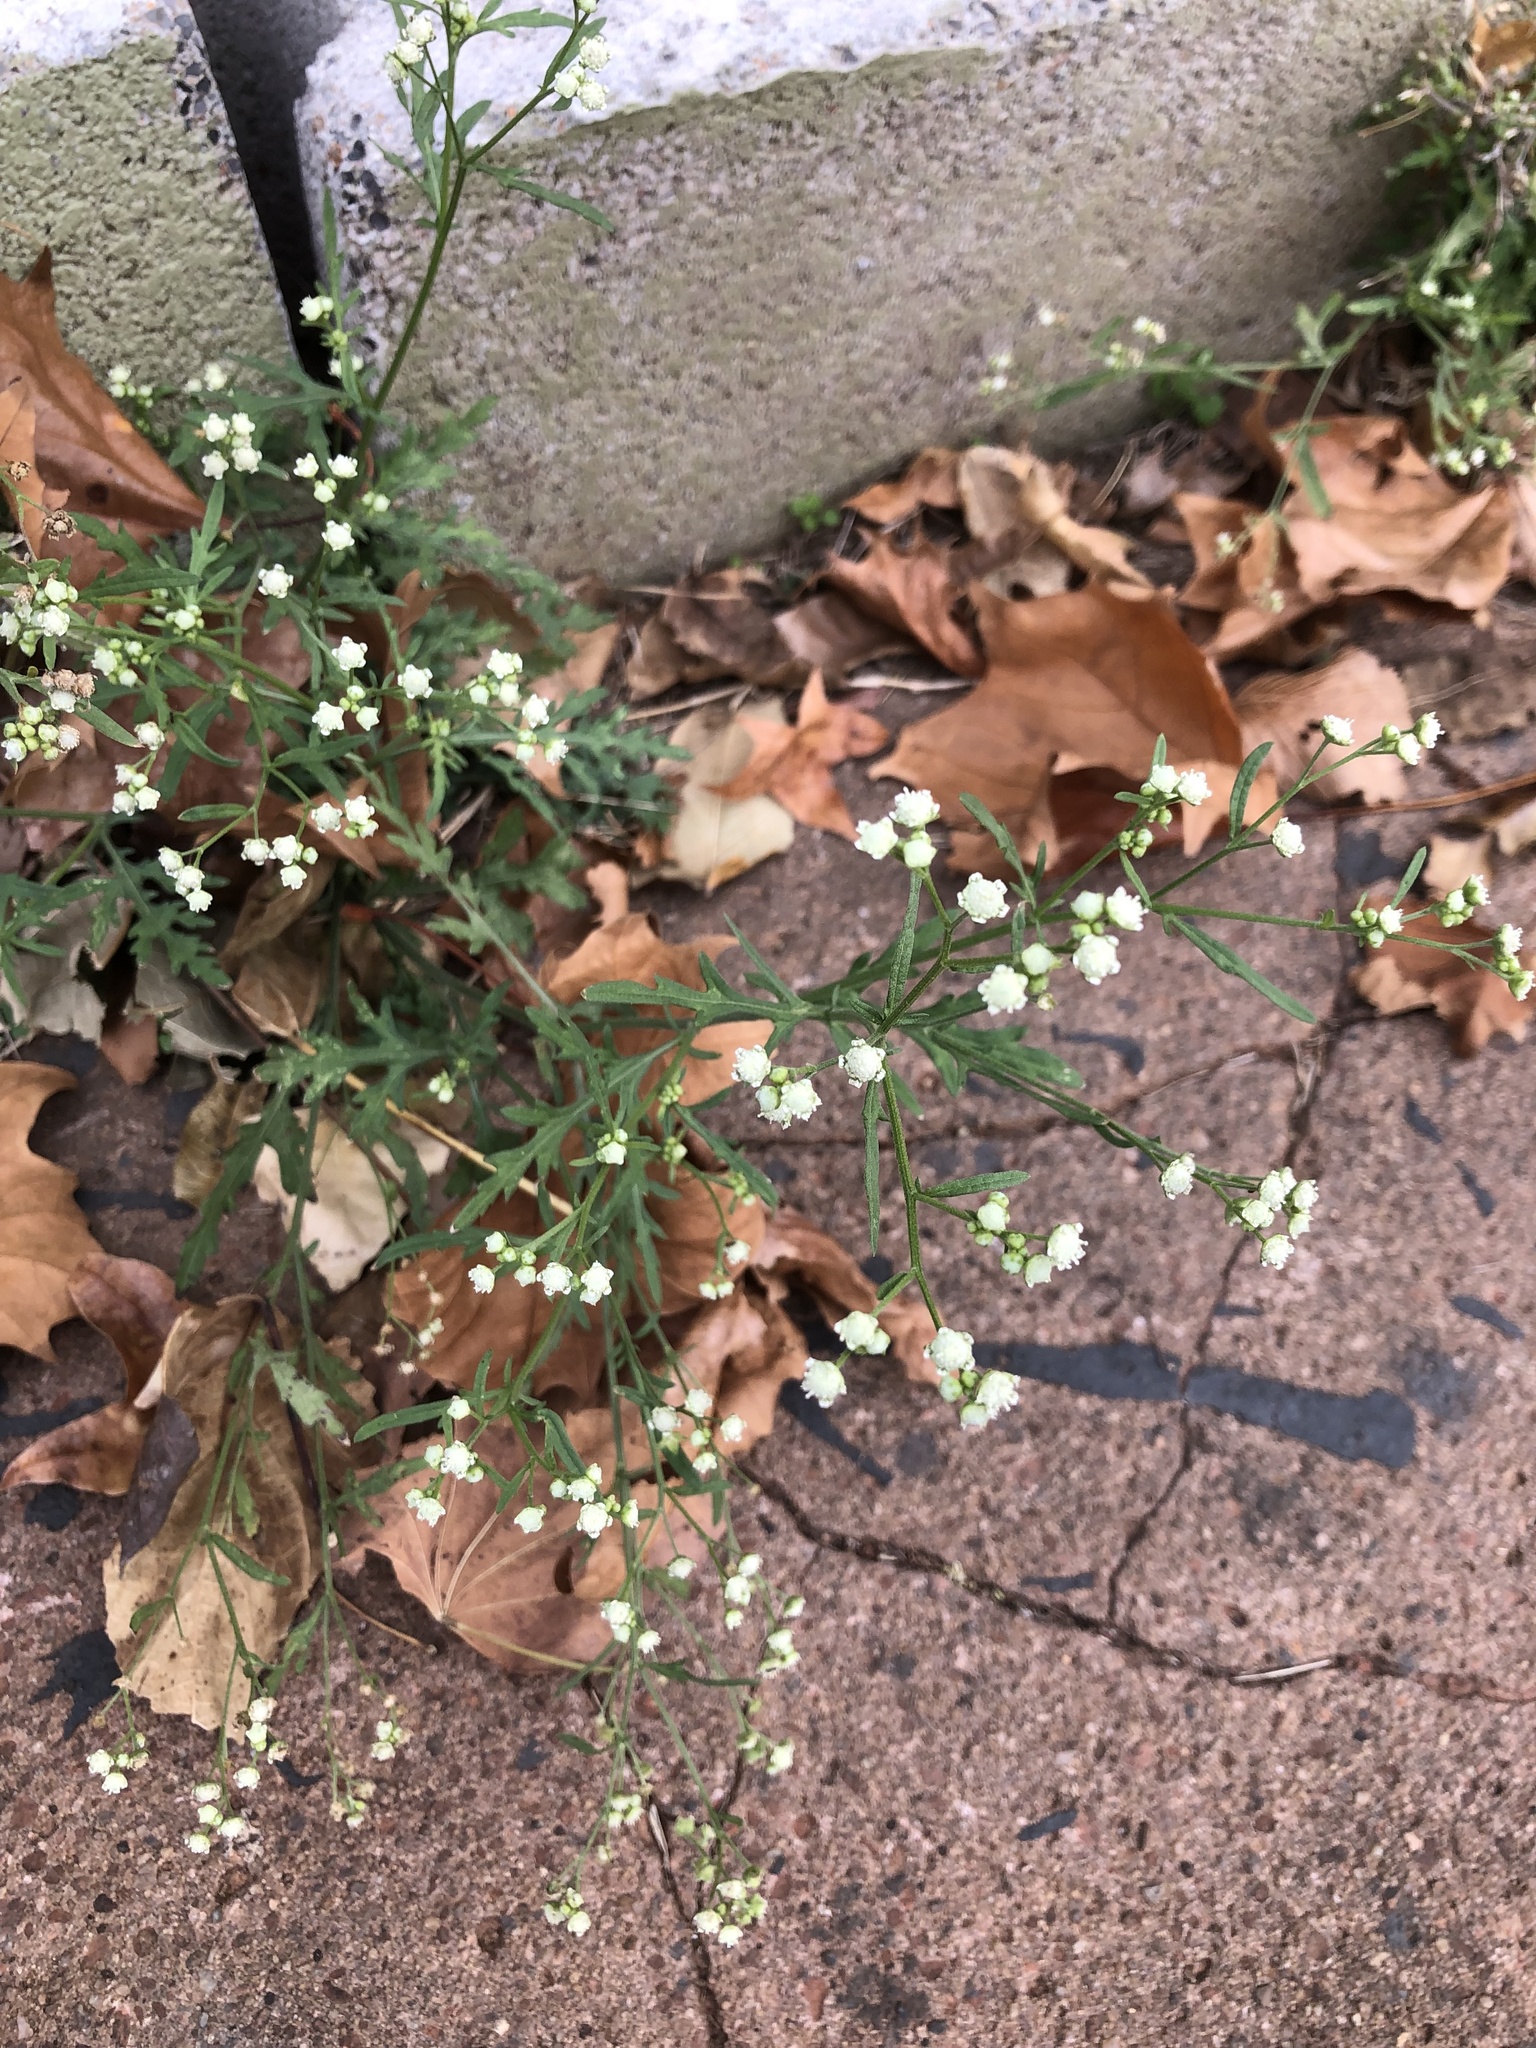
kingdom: Plantae
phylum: Tracheophyta
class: Magnoliopsida
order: Asterales
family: Asteraceae
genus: Parthenium
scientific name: Parthenium hysterophorus
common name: Santa maria feverfew
